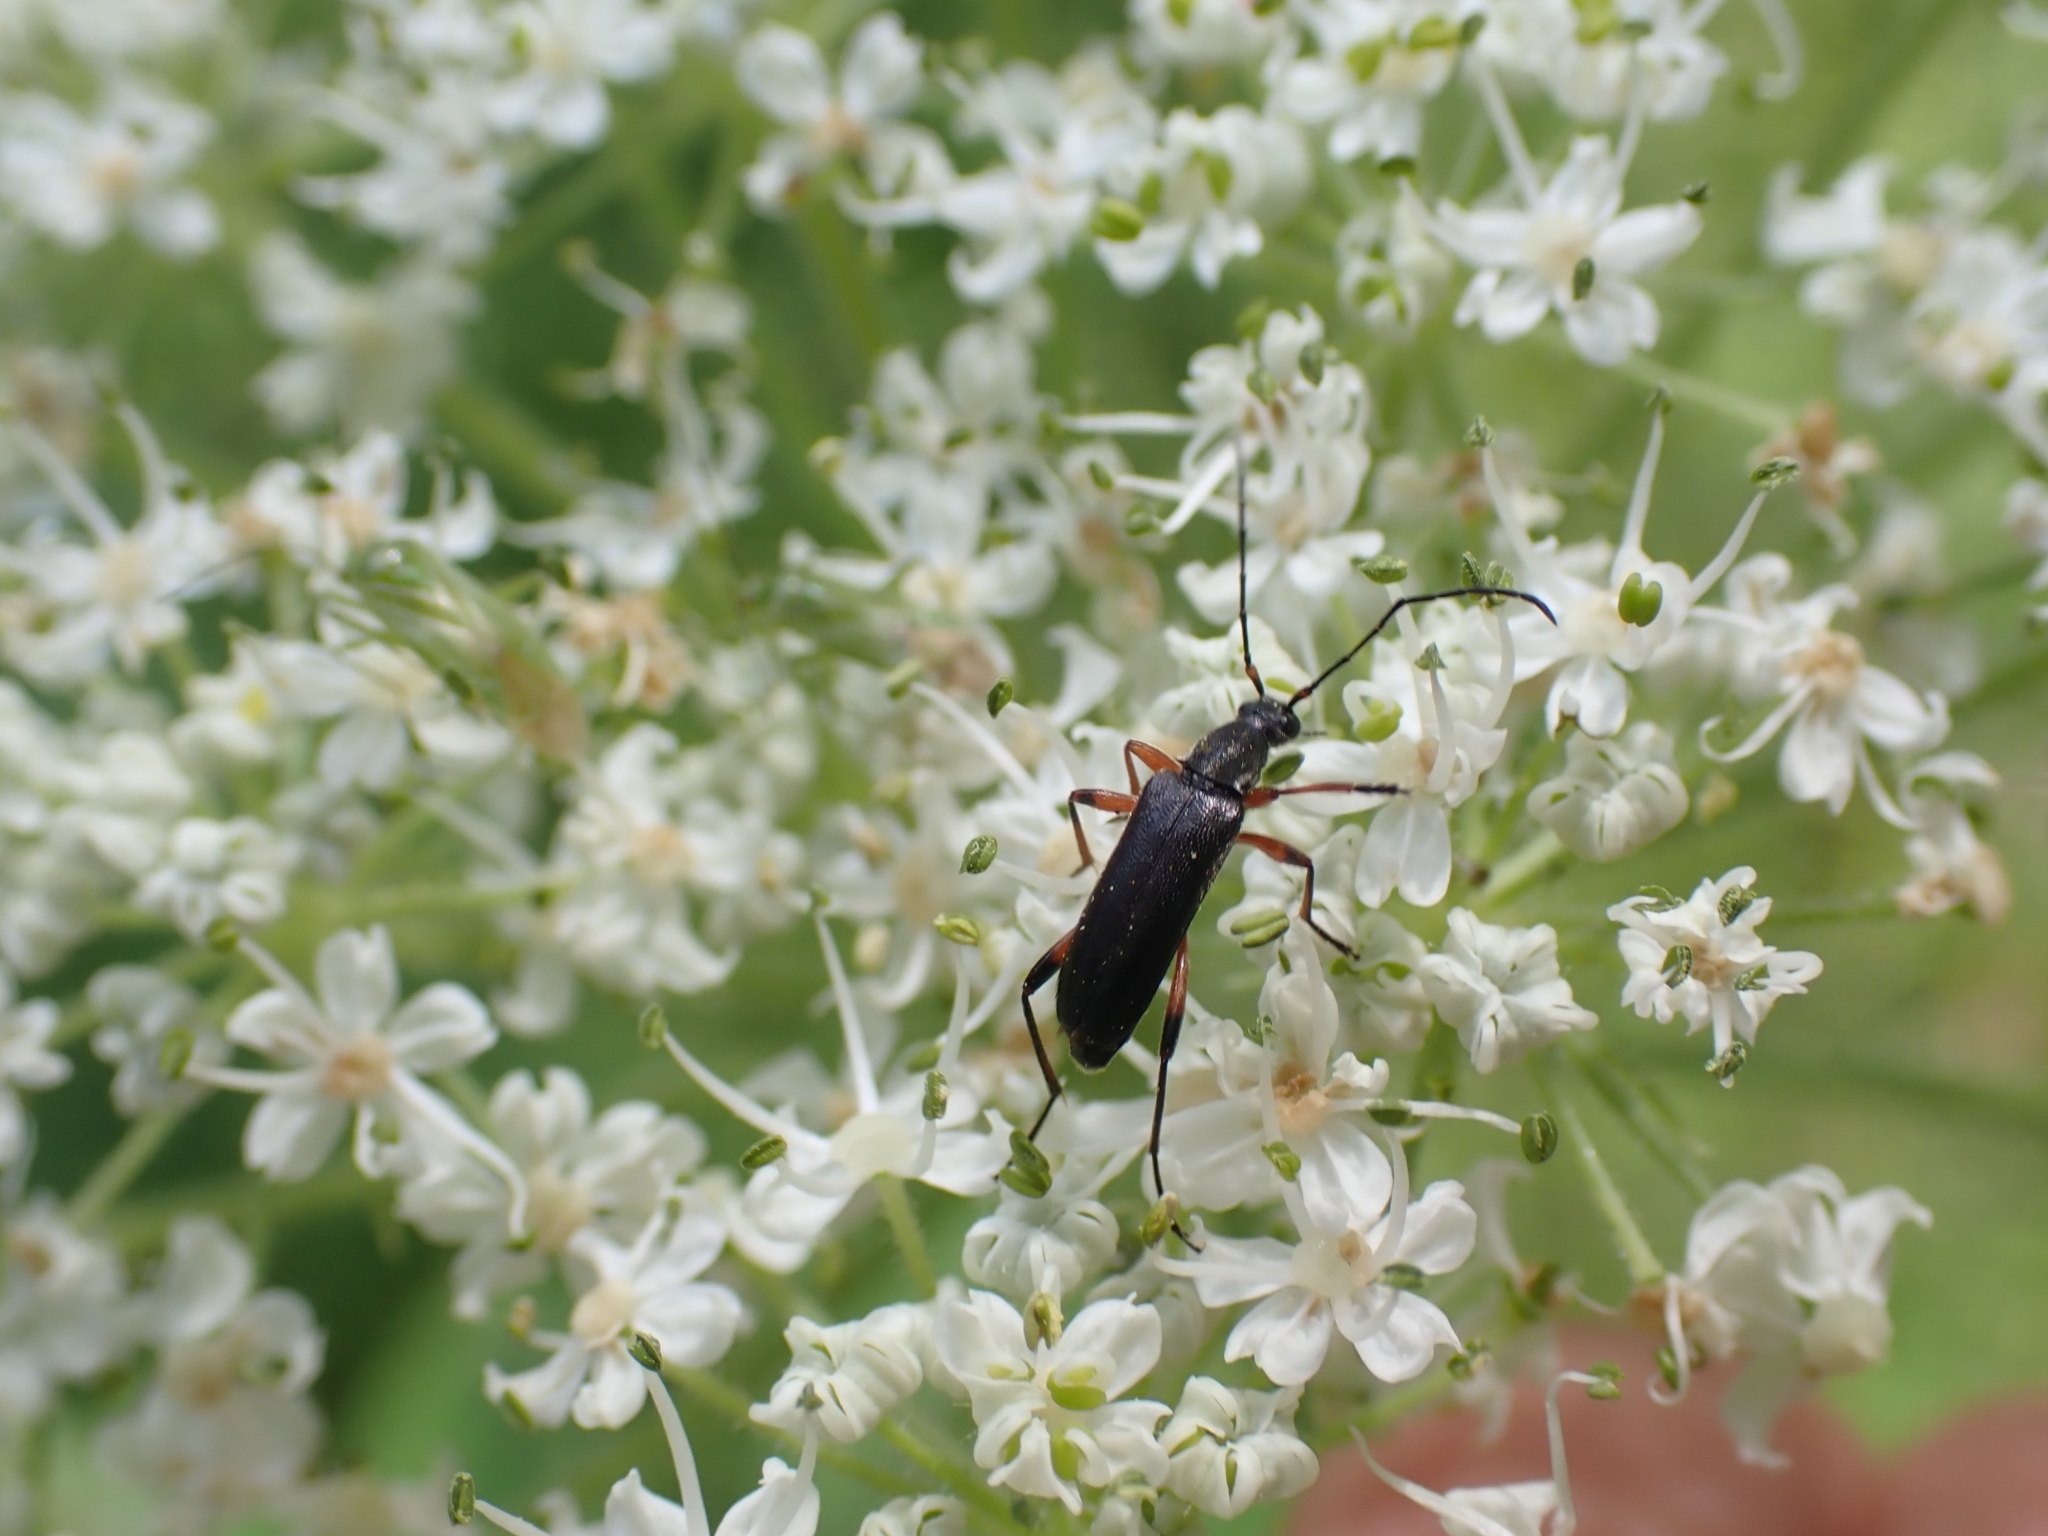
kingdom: Animalia
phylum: Arthropoda
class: Insecta
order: Coleoptera
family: Cerambycidae
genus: Grammoptera
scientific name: Grammoptera subargentata
